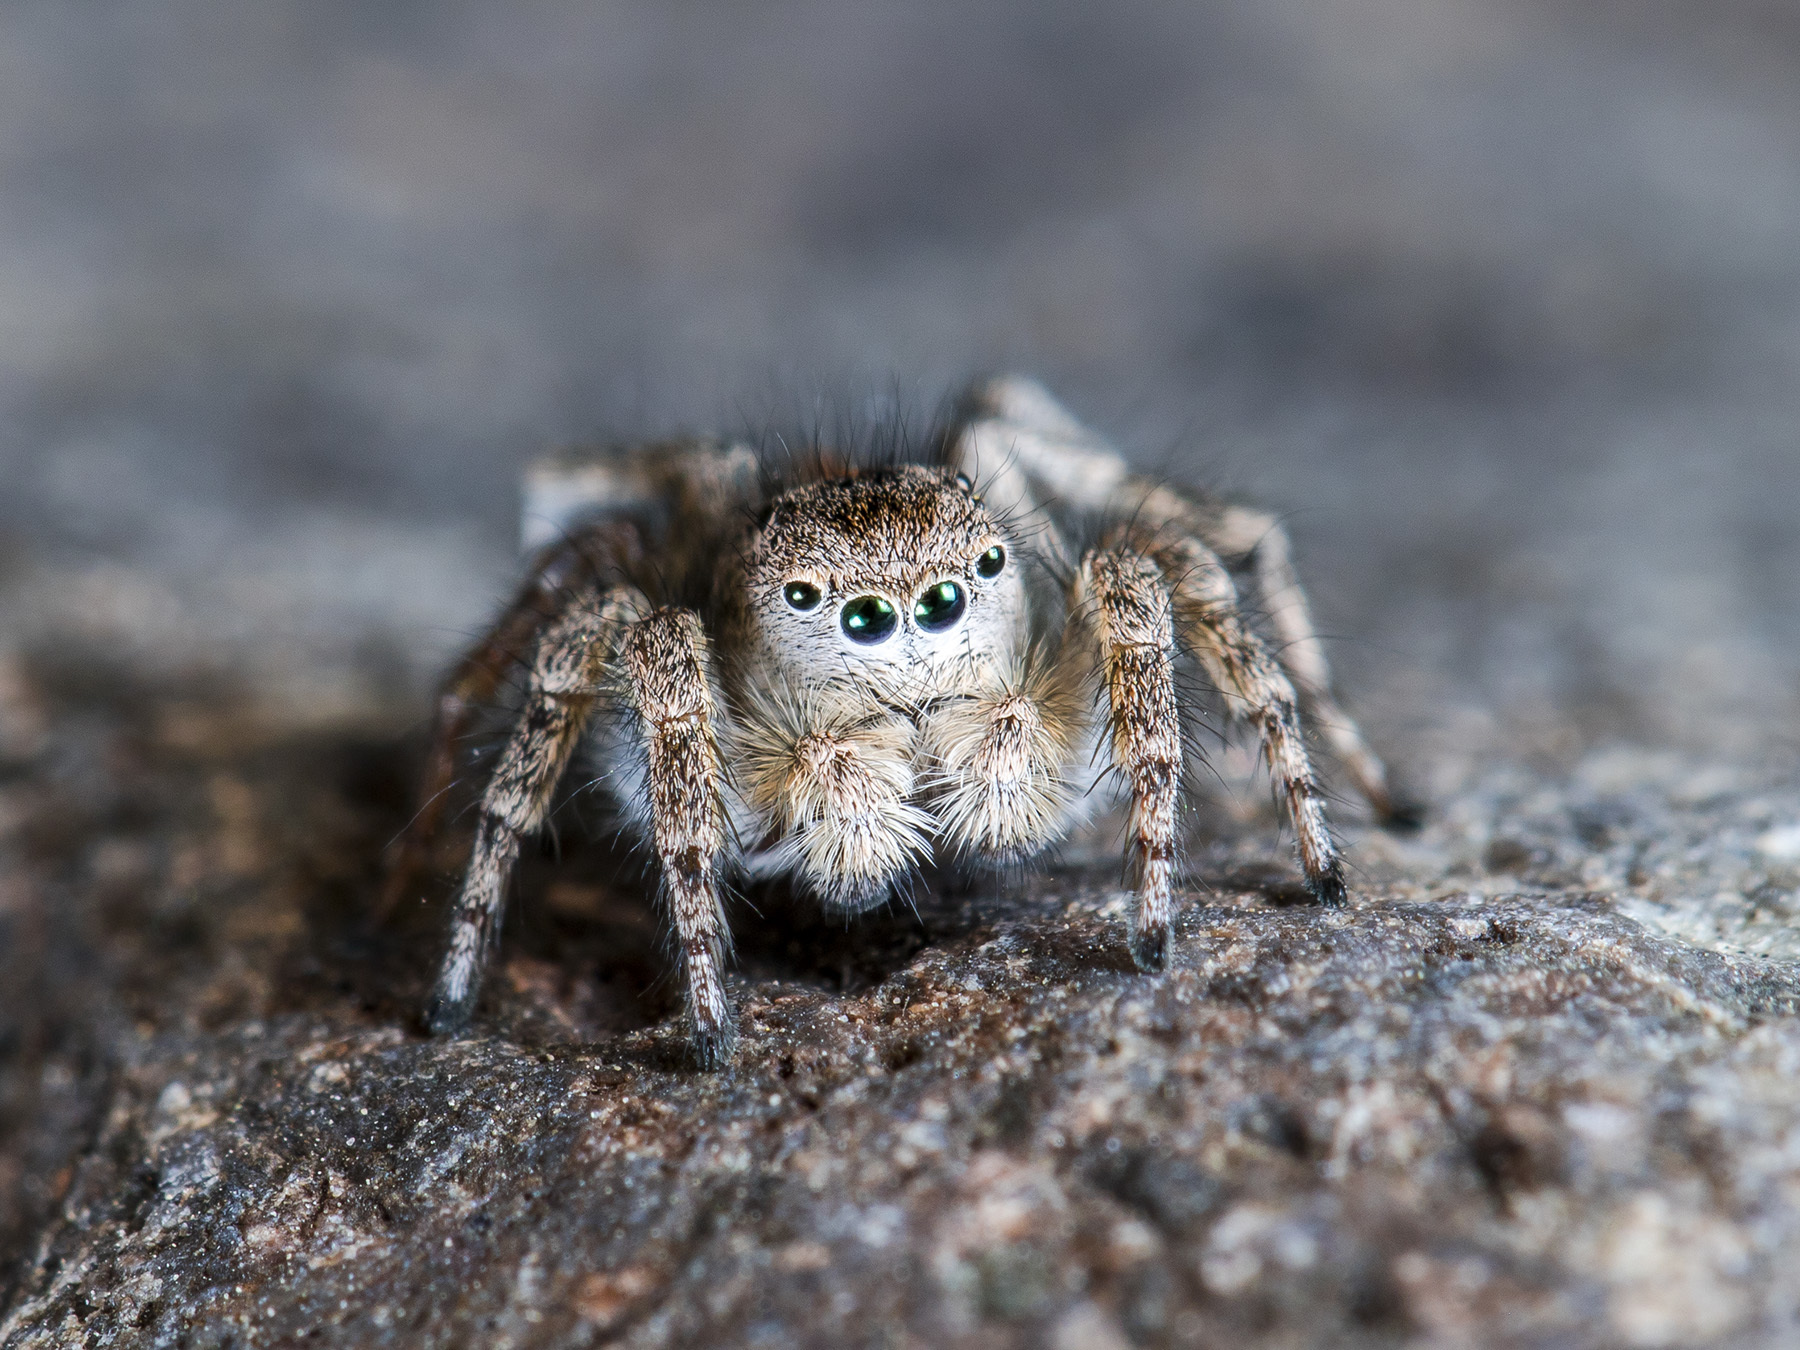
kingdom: Animalia
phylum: Arthropoda
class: Arachnida
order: Araneae
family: Salticidae
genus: Aelurillus
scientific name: Aelurillus dubatolovi
